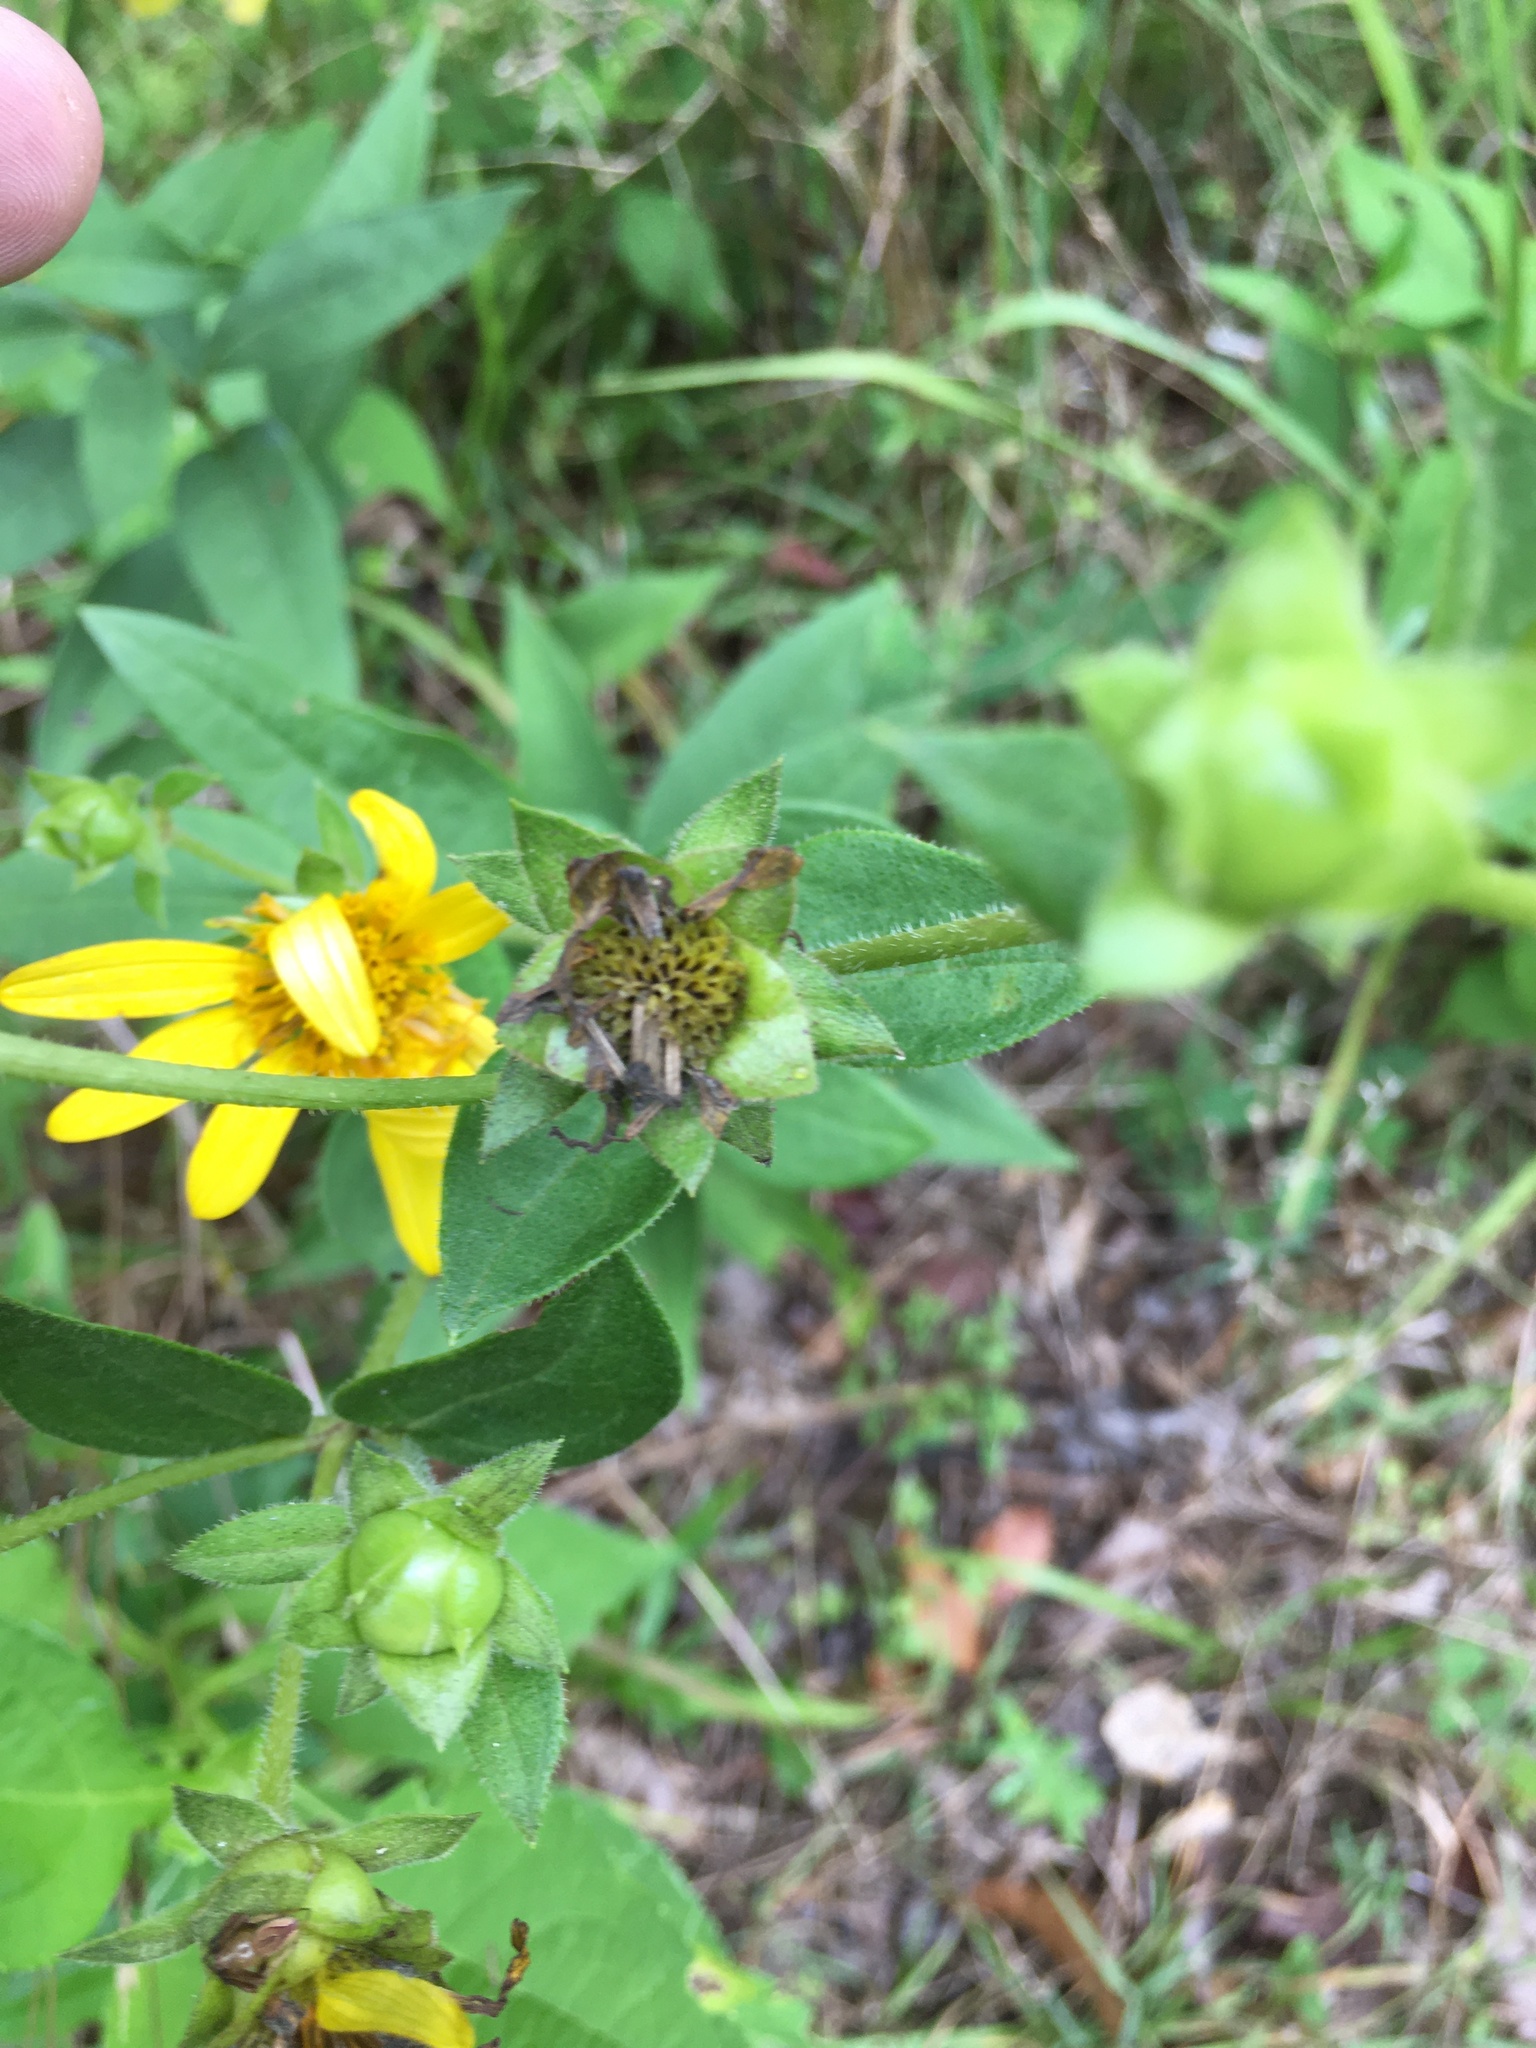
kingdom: Plantae
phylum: Tracheophyta
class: Magnoliopsida
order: Asterales
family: Asteraceae
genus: Silphium
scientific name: Silphium asteriscus
